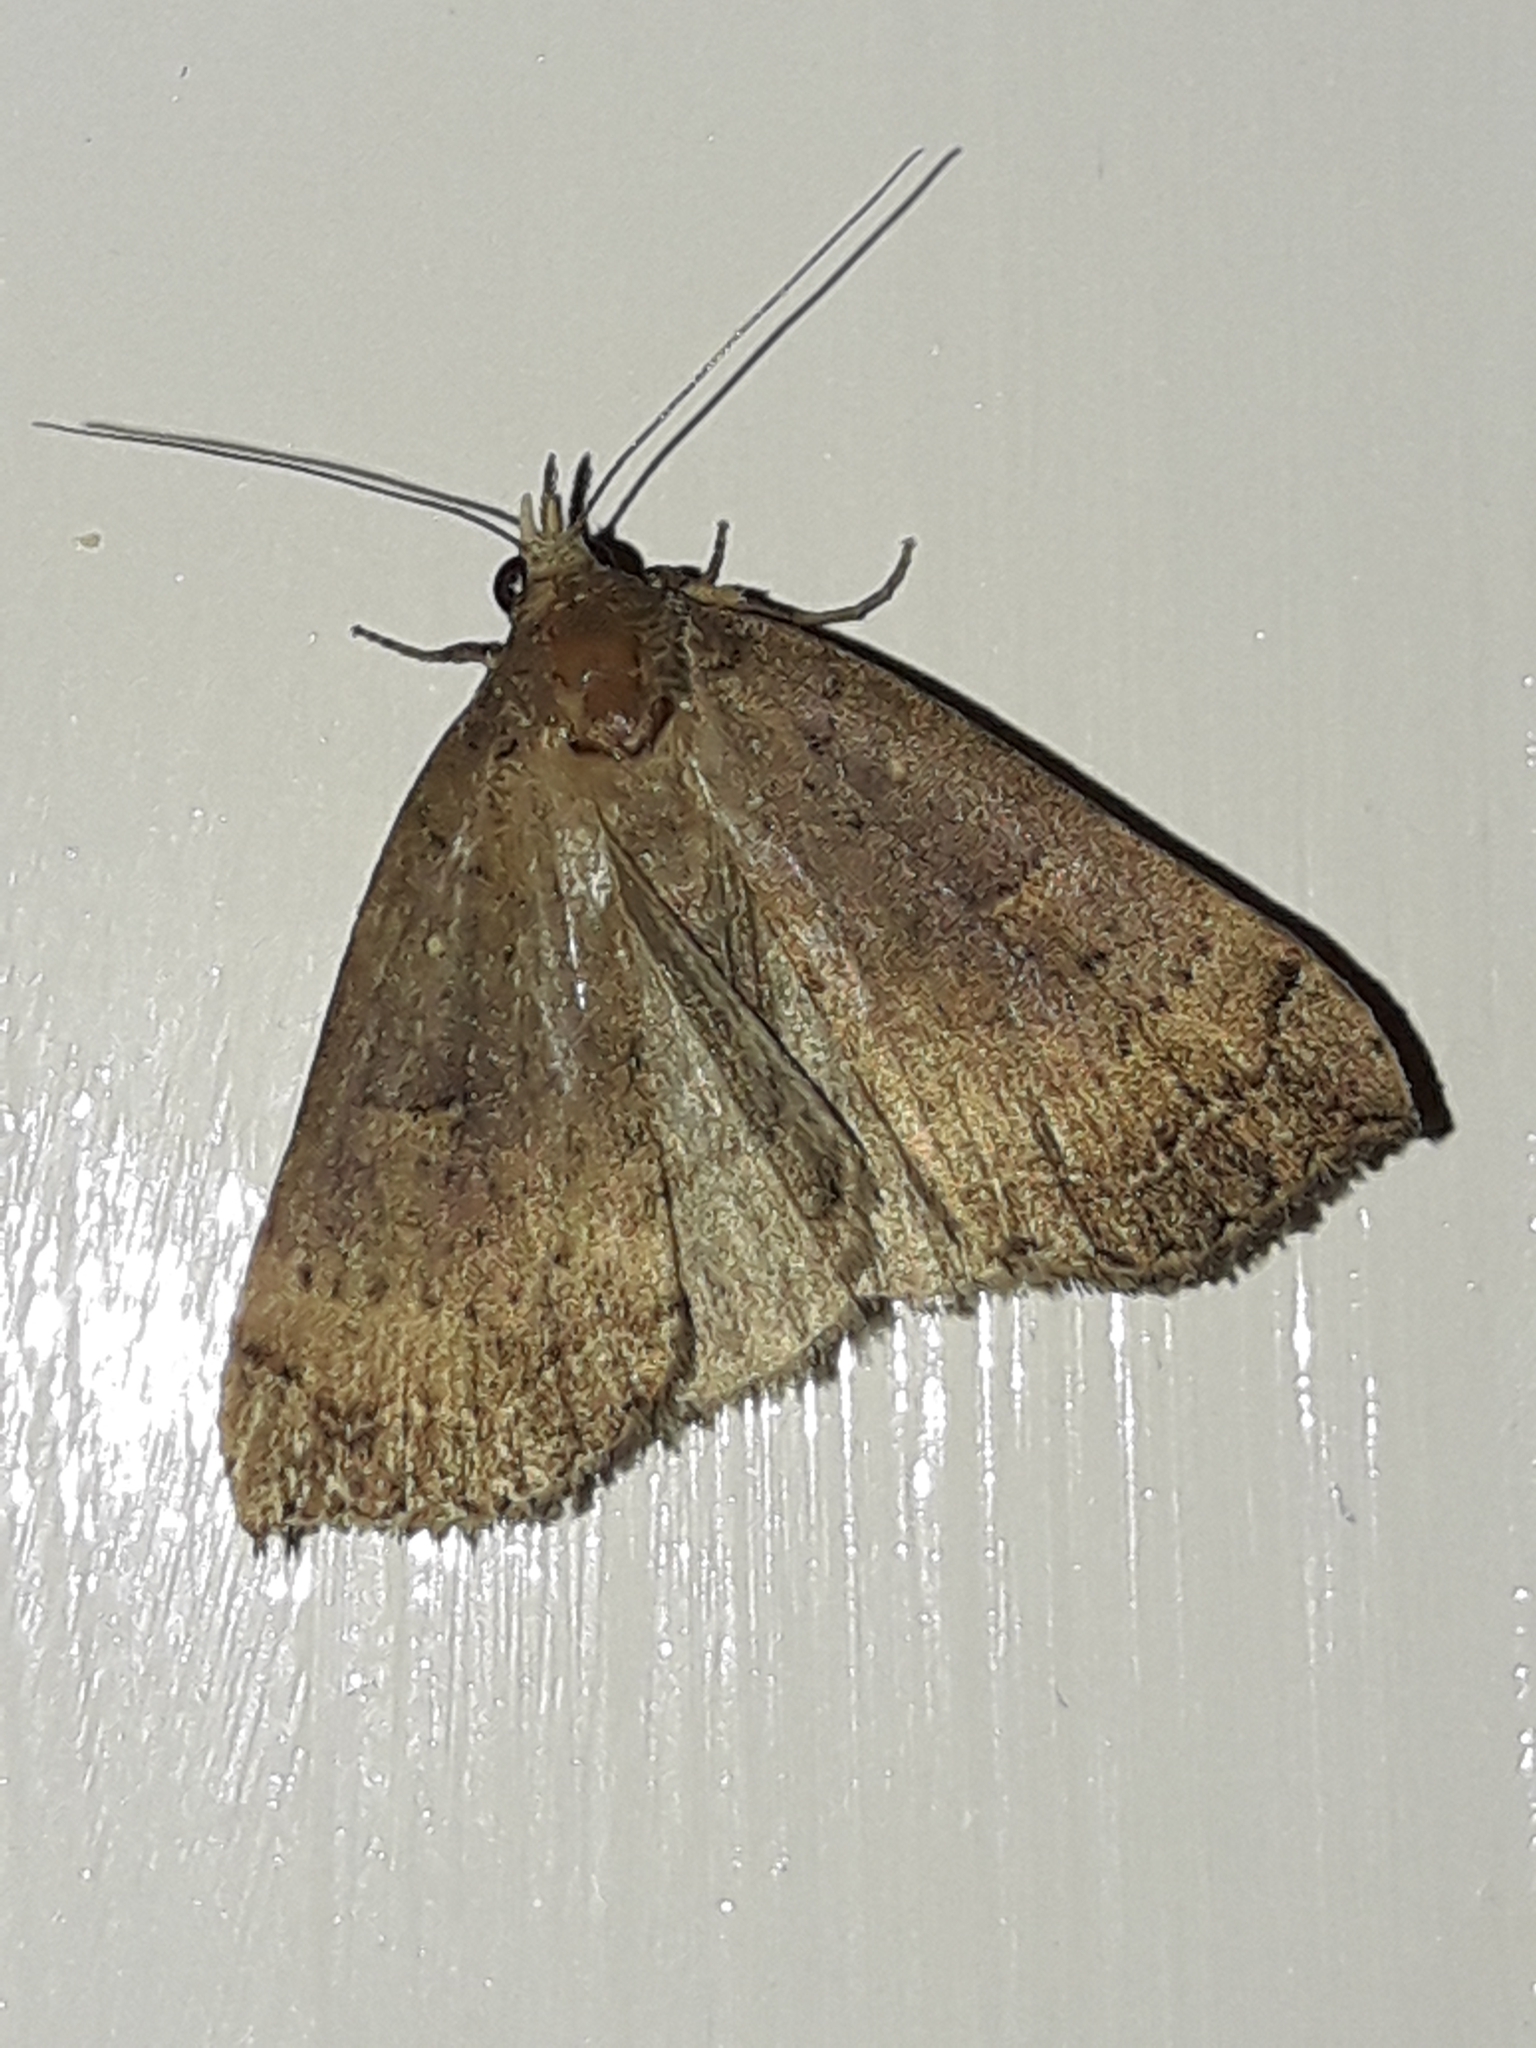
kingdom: Animalia
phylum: Arthropoda
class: Insecta
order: Lepidoptera
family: Erebidae
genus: Rhapsa
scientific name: Rhapsa scotosialis
